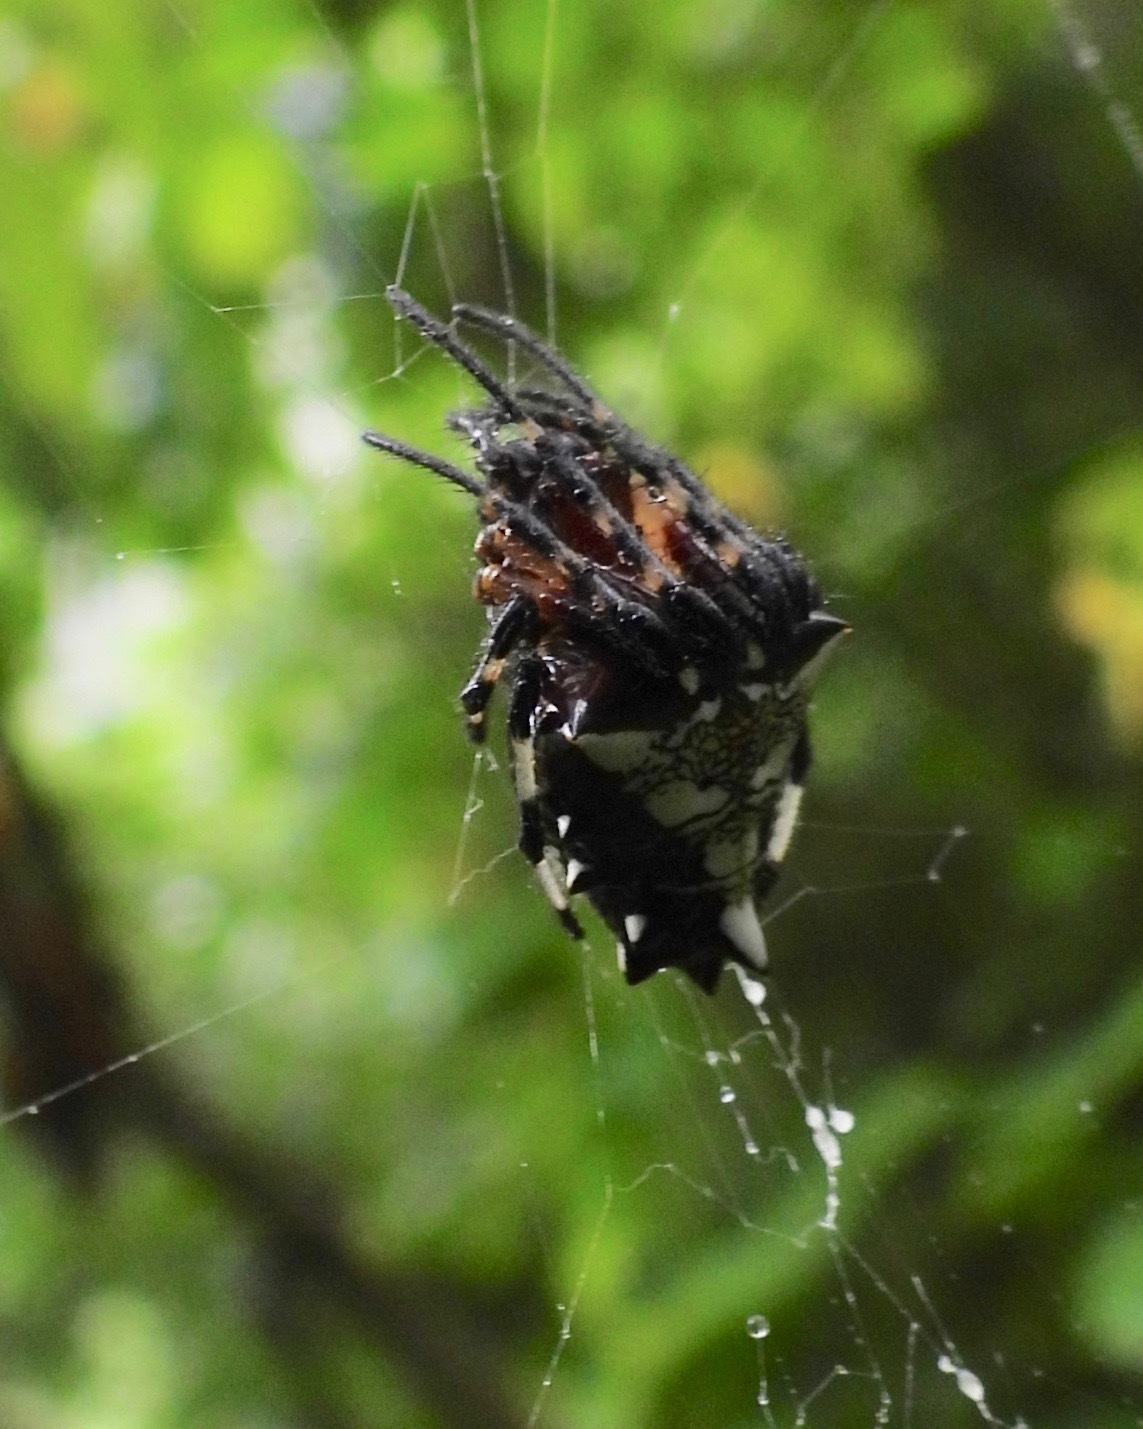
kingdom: Animalia
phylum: Arthropoda
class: Arachnida
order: Araneae
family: Araneidae
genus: Verrucosa
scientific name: Verrucosa arenata
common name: Orb weavers
